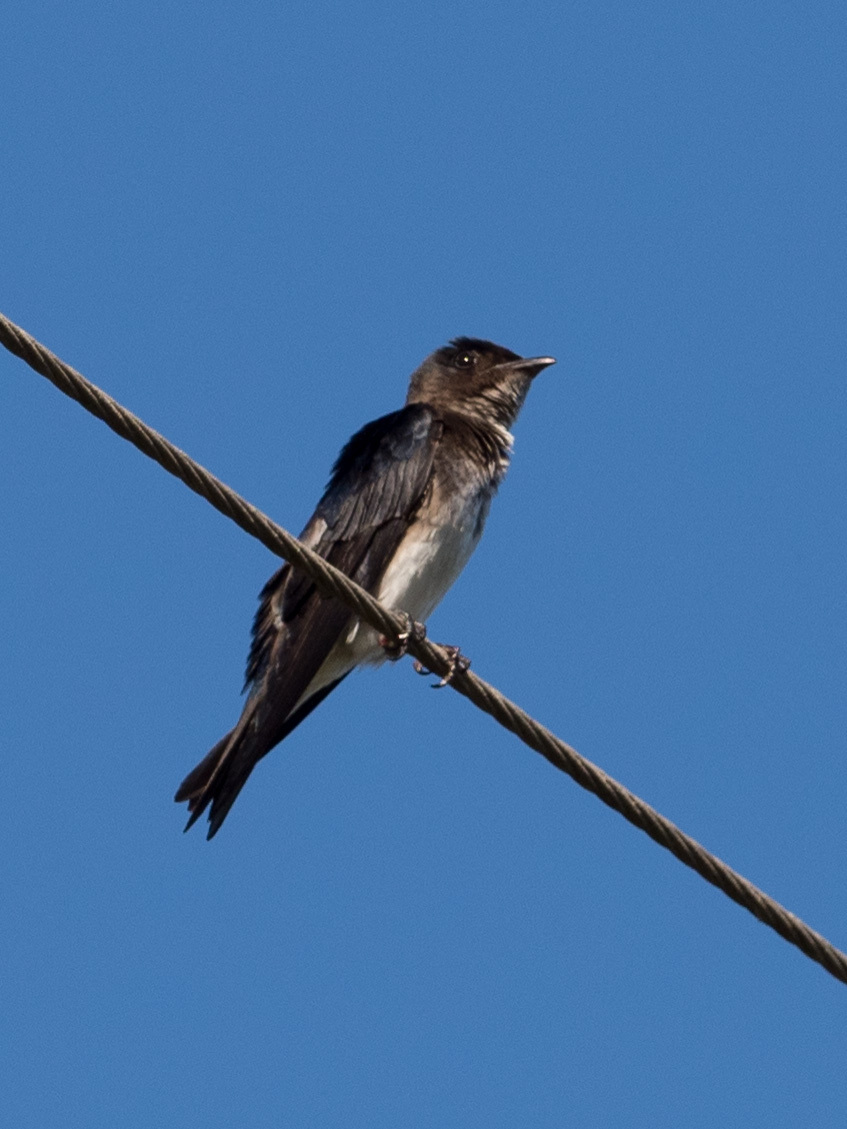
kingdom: Animalia
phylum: Chordata
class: Aves
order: Passeriformes
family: Hirundinidae
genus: Progne
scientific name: Progne chalybea
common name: Grey-breasted martin
